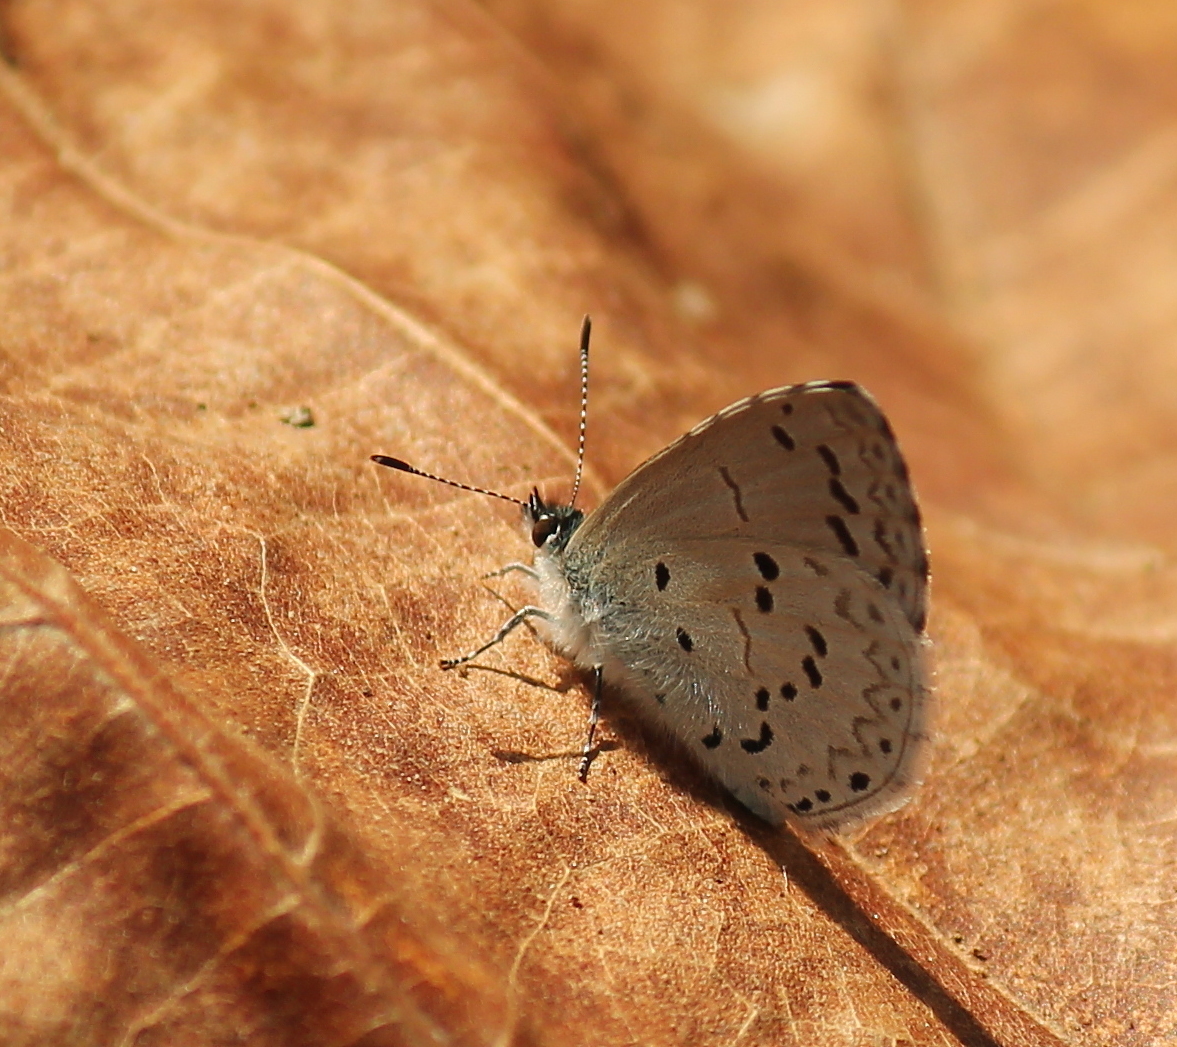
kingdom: Animalia
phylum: Arthropoda
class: Insecta
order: Lepidoptera
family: Lycaenidae
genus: Celastrina
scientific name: Celastrina ladon
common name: Spring azure
